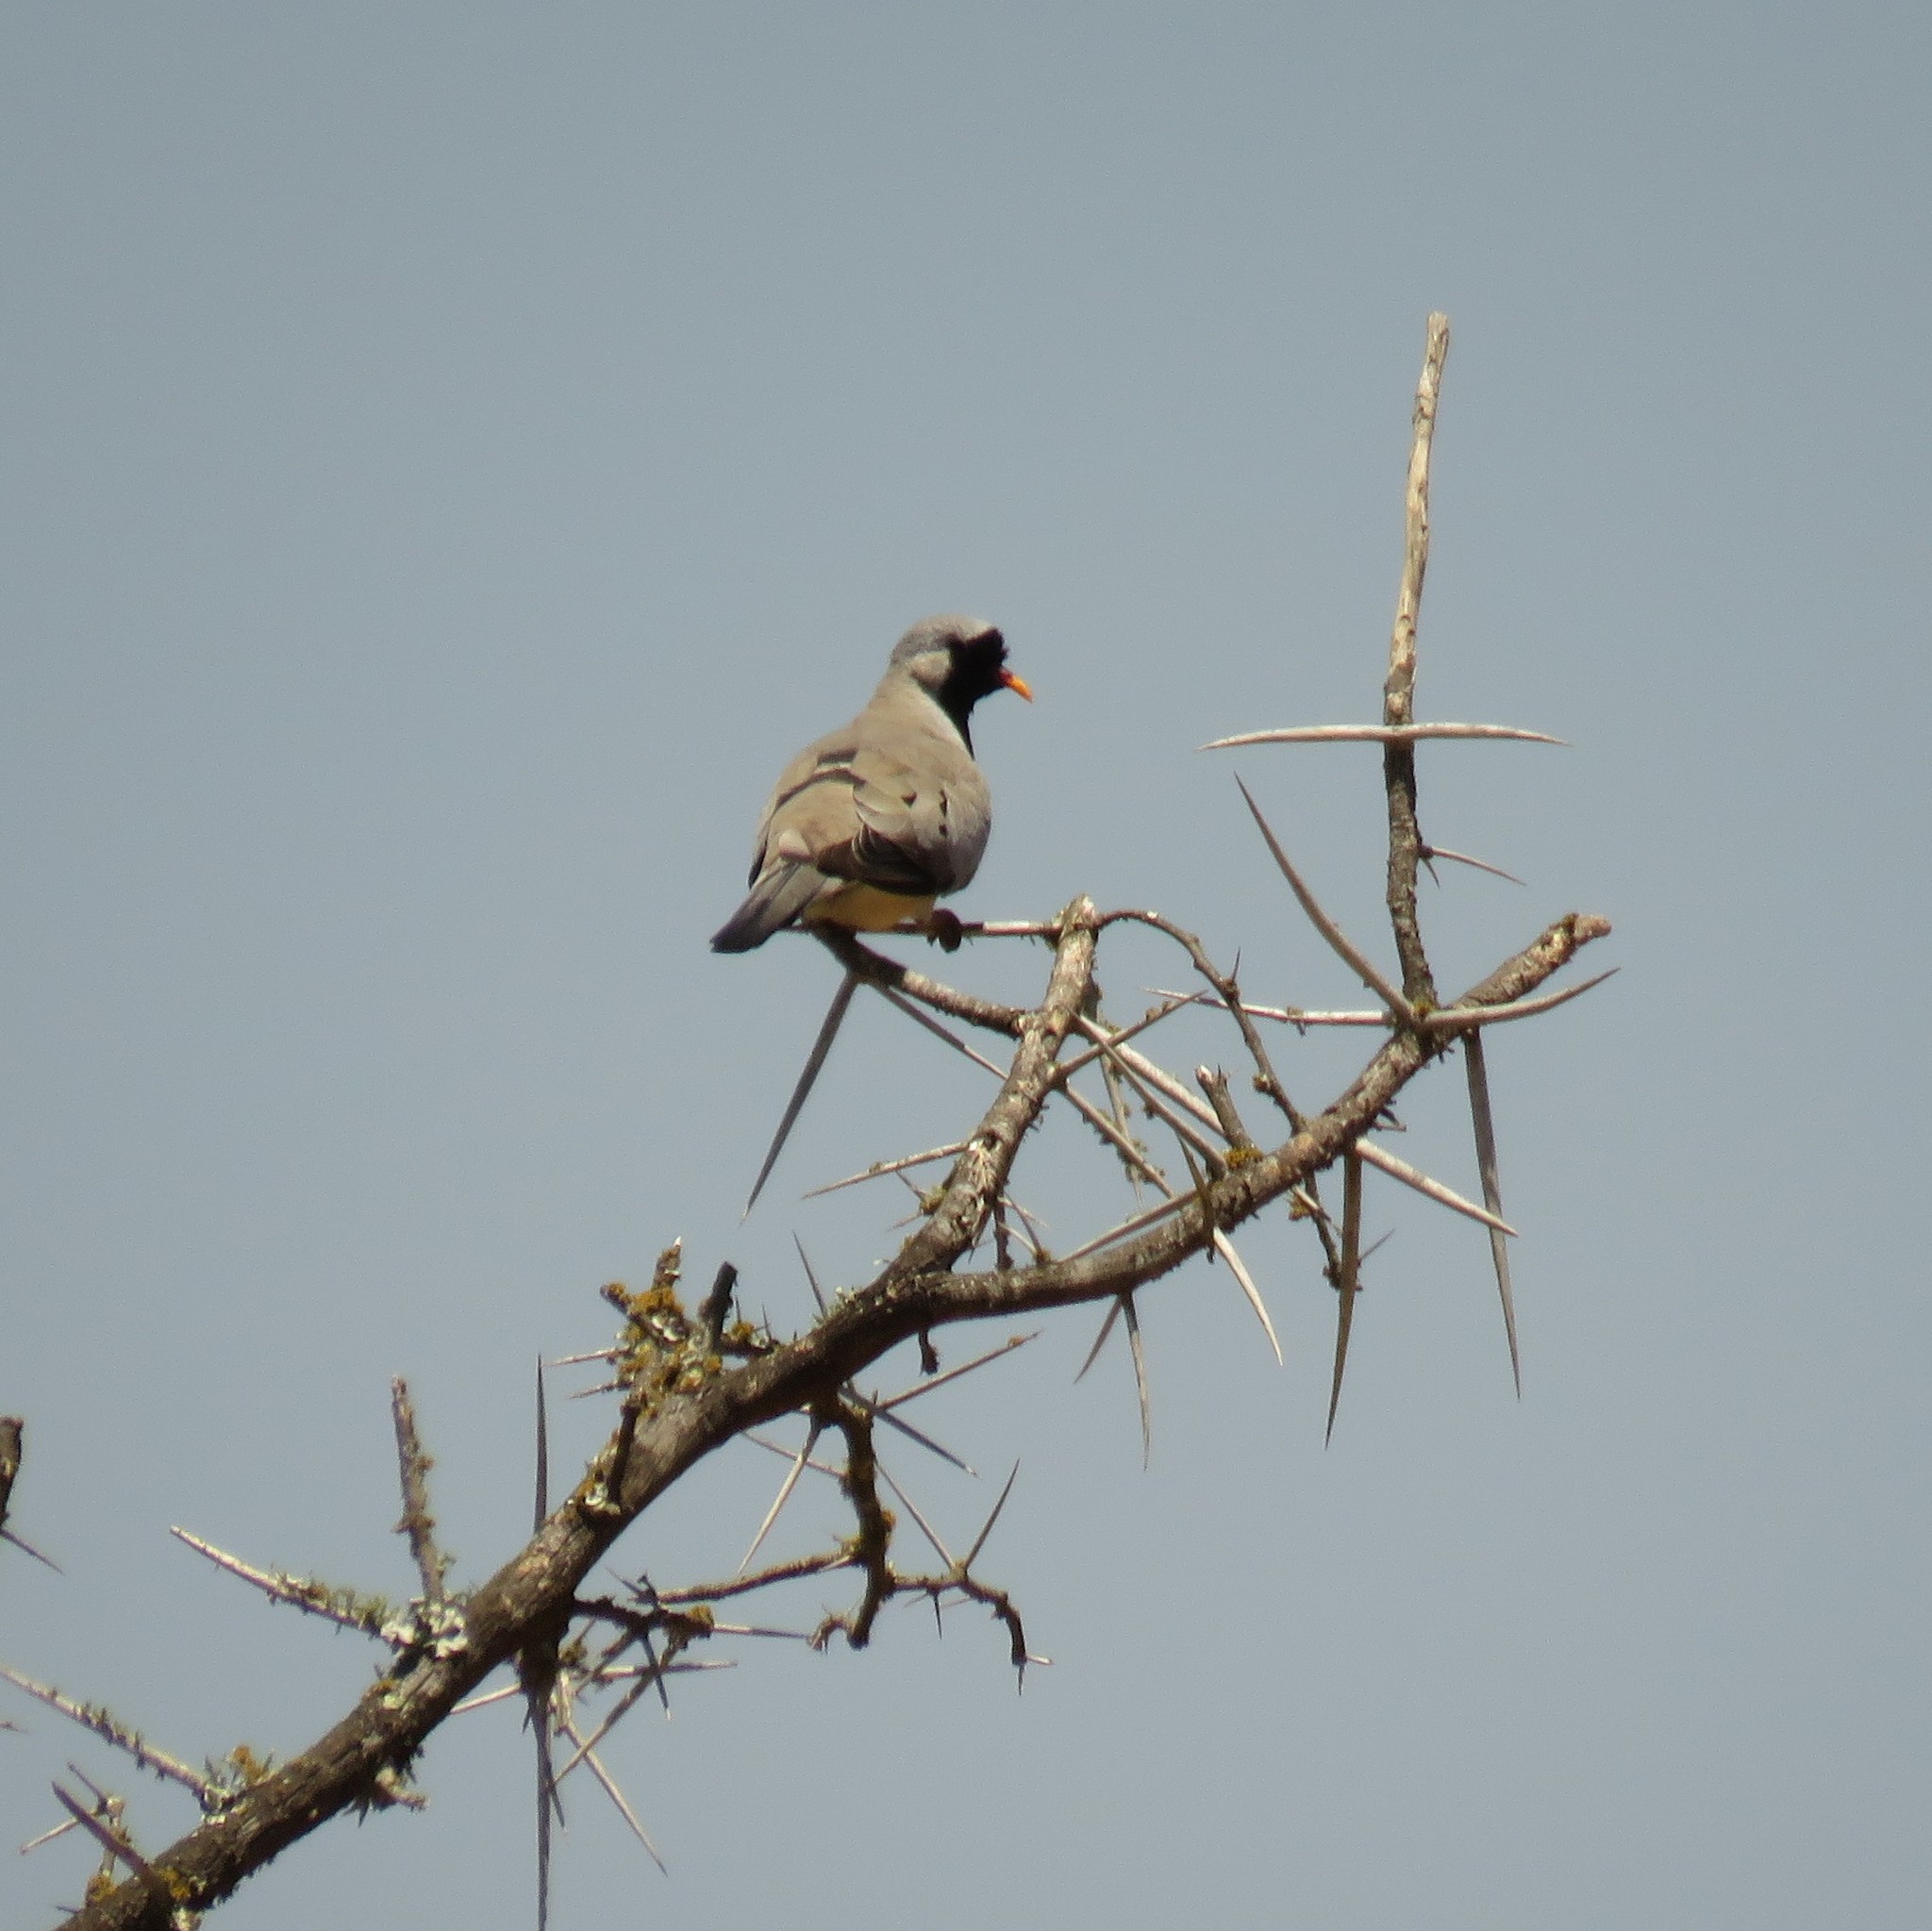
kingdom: Animalia
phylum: Chordata
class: Aves
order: Columbiformes
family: Columbidae
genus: Oena
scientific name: Oena capensis
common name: Namaqua dove
